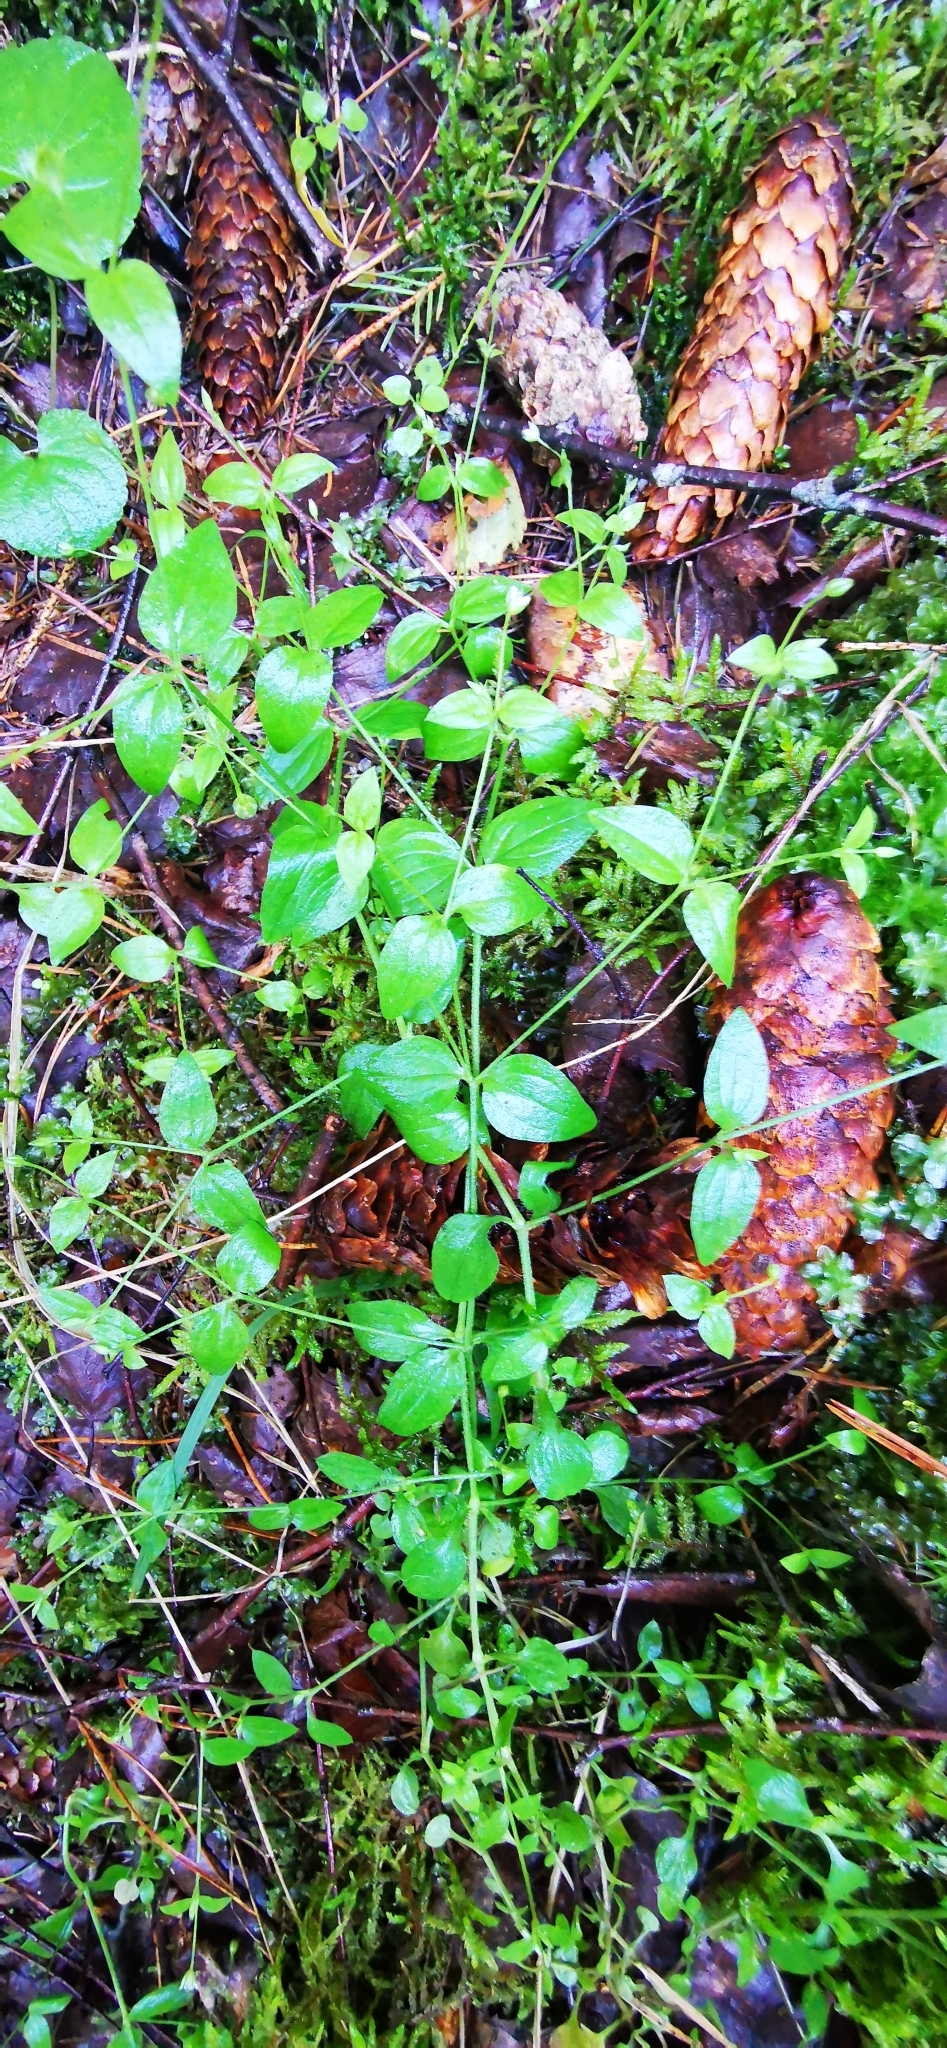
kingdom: Plantae
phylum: Tracheophyta
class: Magnoliopsida
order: Caryophyllales
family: Caryophyllaceae
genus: Moehringia
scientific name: Moehringia trinervia
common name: Three-nerved sandwort
